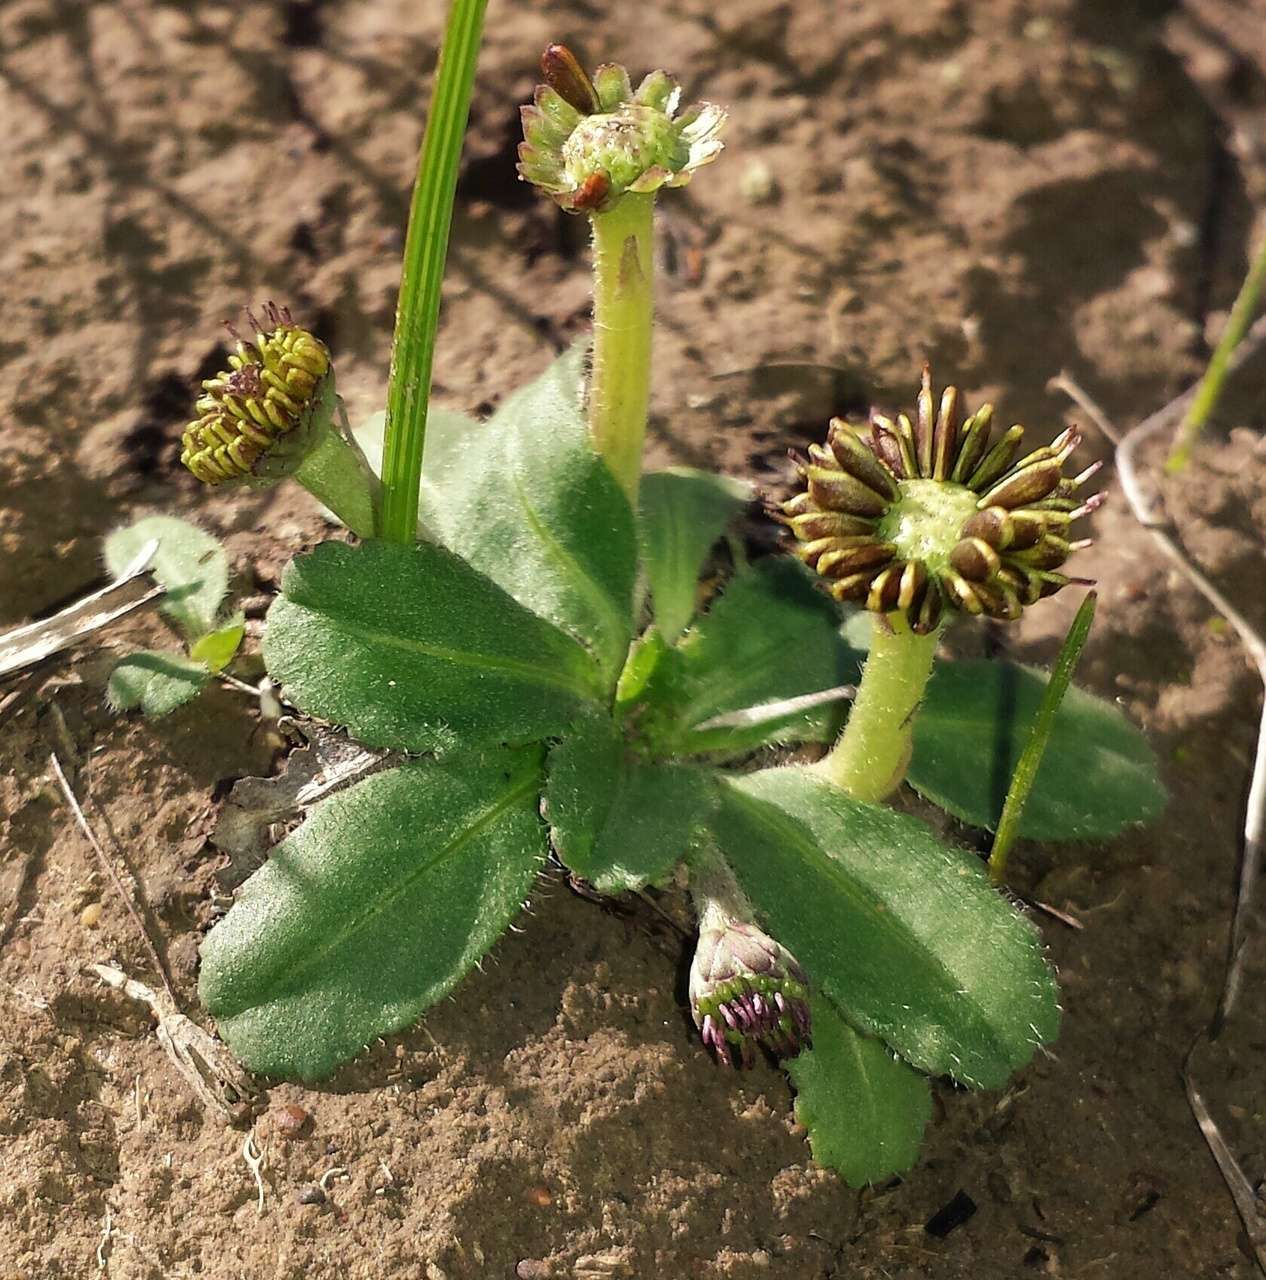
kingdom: Plantae
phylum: Tracheophyta
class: Magnoliopsida
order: Asterales
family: Asteraceae
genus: Solenogyne
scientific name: Solenogyne dominii
